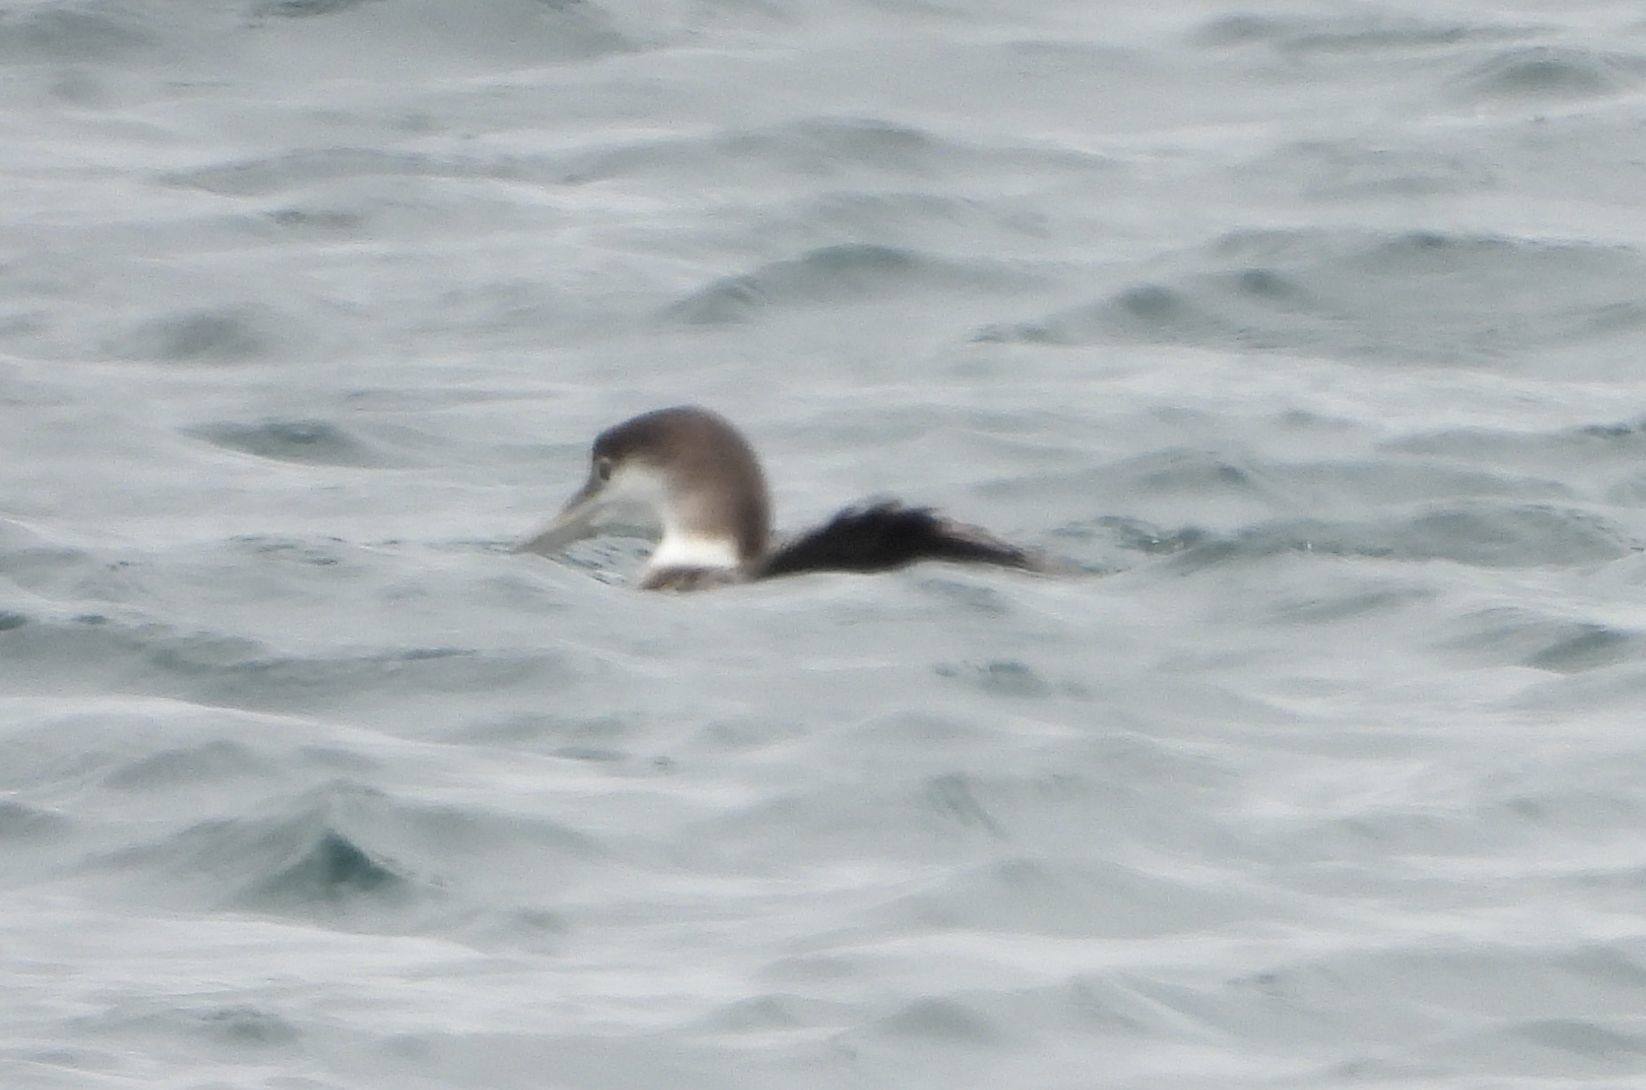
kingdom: Animalia
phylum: Chordata
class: Aves
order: Gaviiformes
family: Gaviidae
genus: Gavia
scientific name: Gavia immer
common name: Common loon
